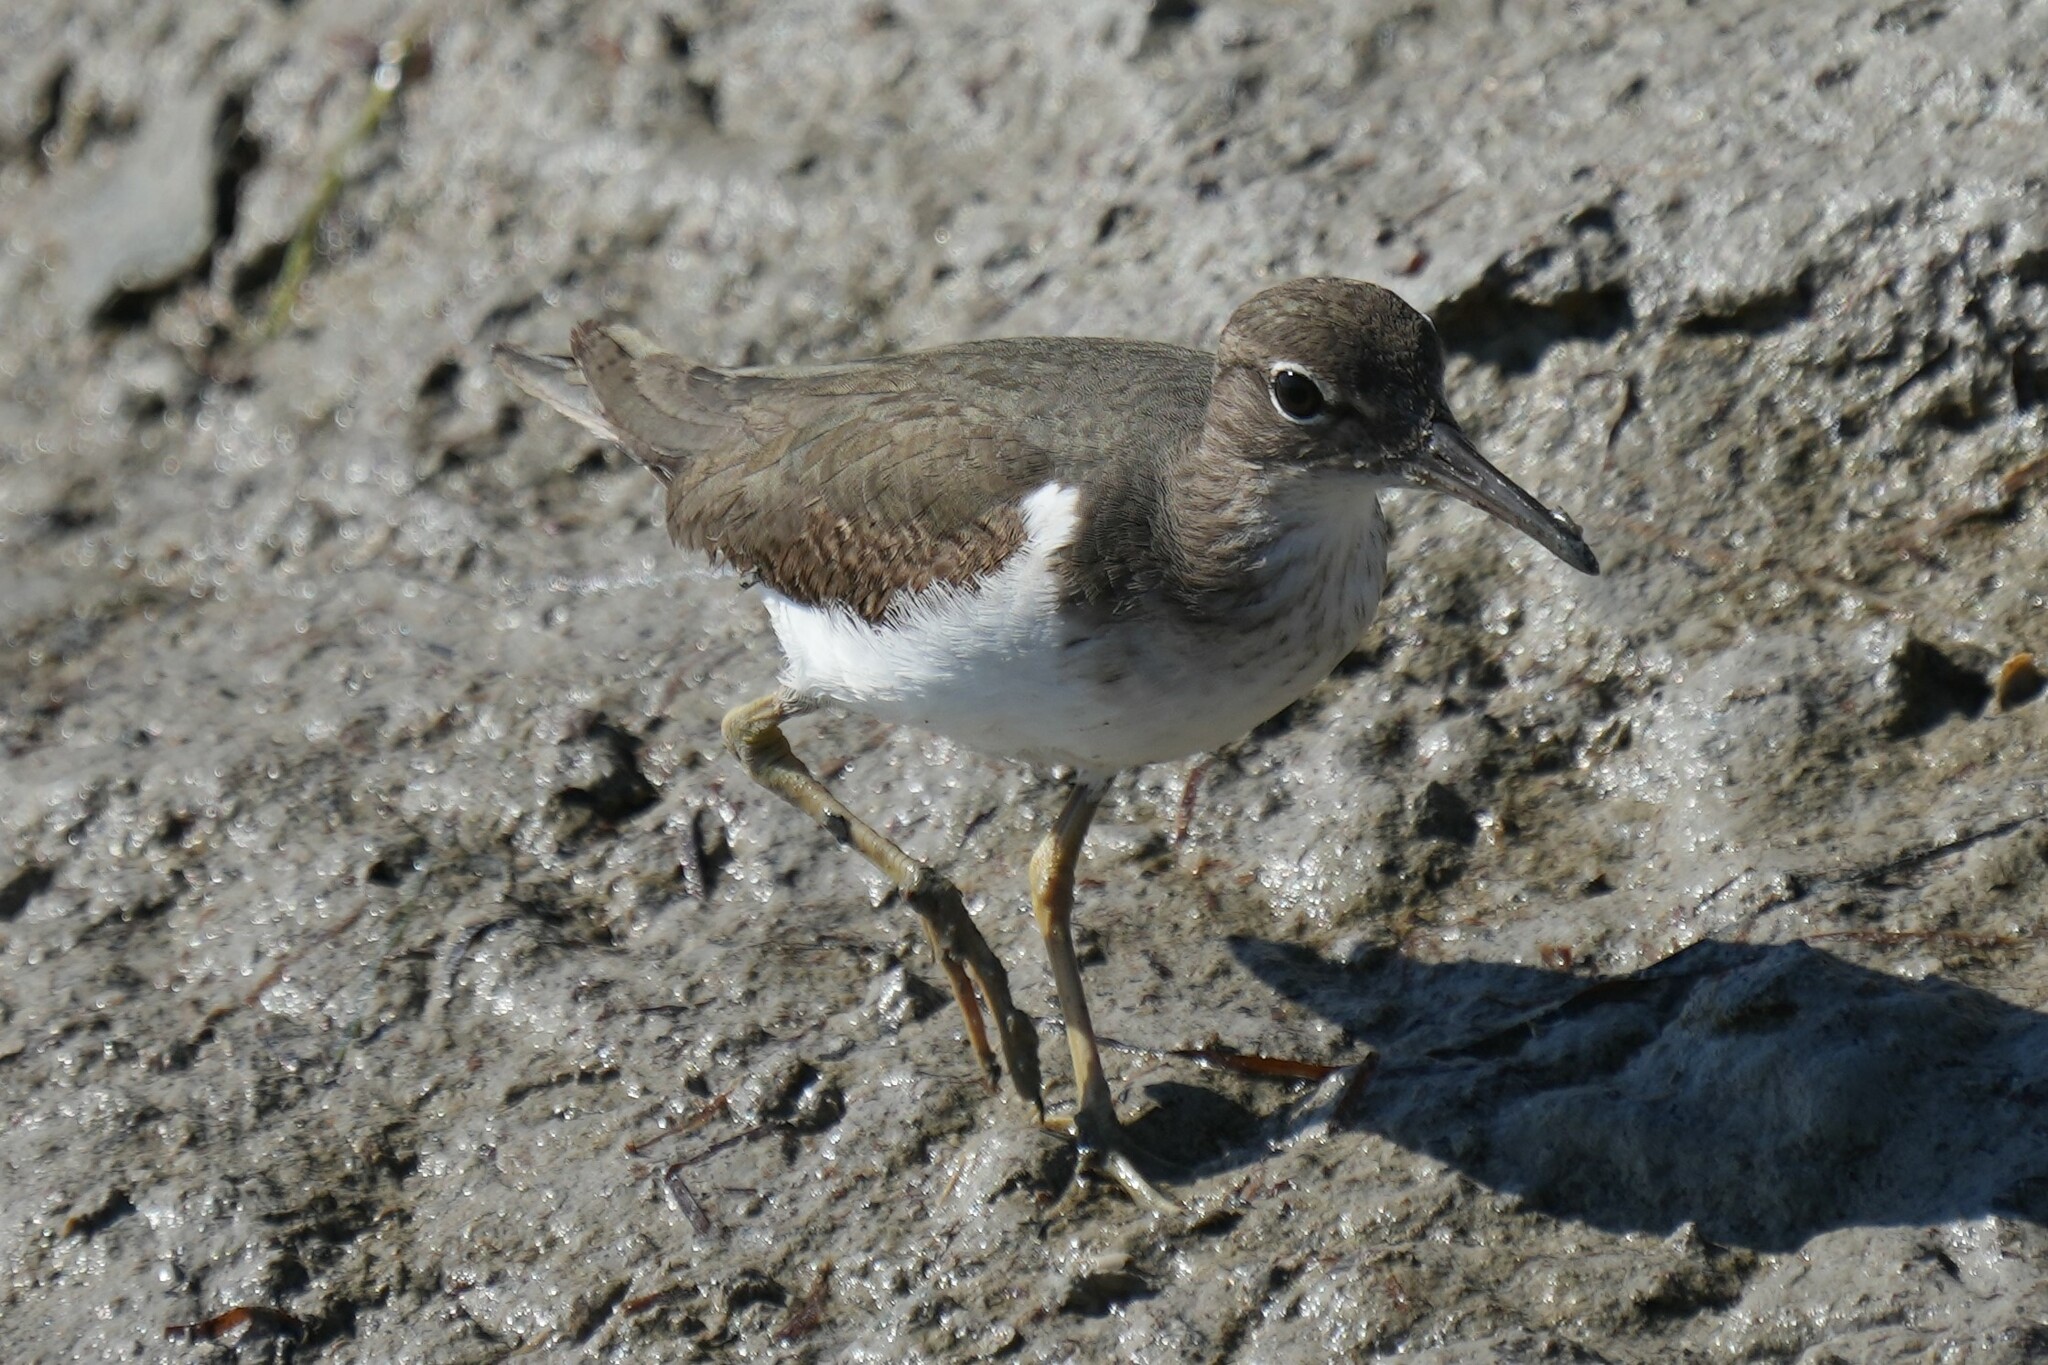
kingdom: Animalia
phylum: Chordata
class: Aves
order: Charadriiformes
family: Scolopacidae
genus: Actitis
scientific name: Actitis macularius
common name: Spotted sandpiper
